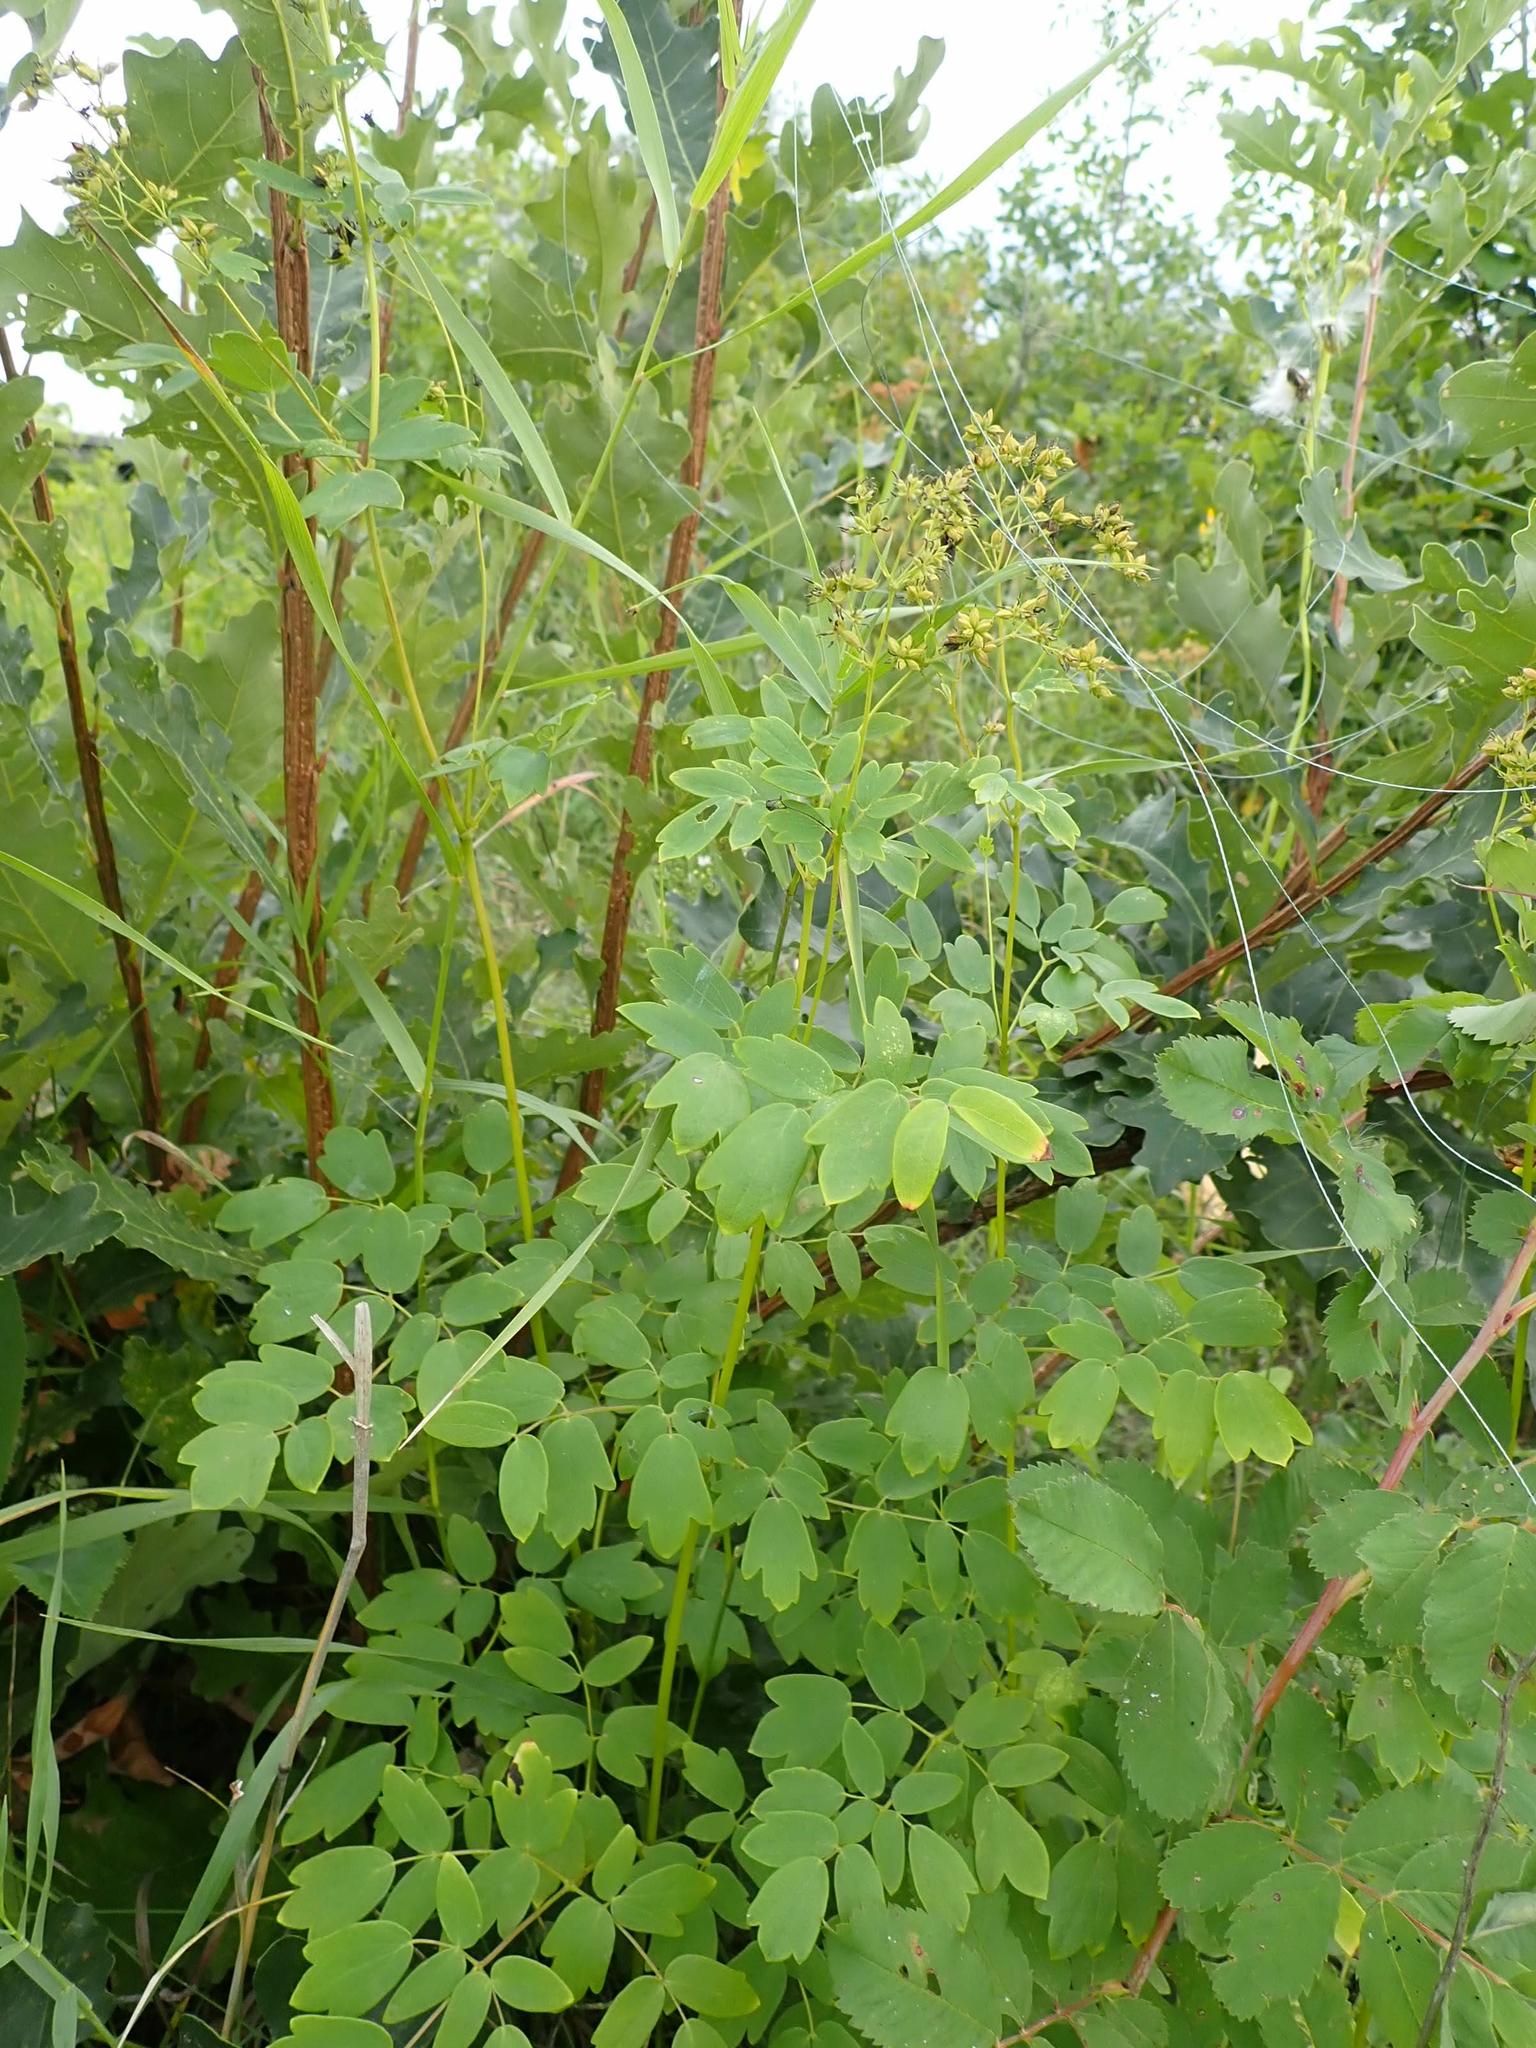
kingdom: Plantae
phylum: Tracheophyta
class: Magnoliopsida
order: Ranunculales
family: Ranunculaceae
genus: Thalictrum
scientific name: Thalictrum dasycarpum
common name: Purple meadow-rue
